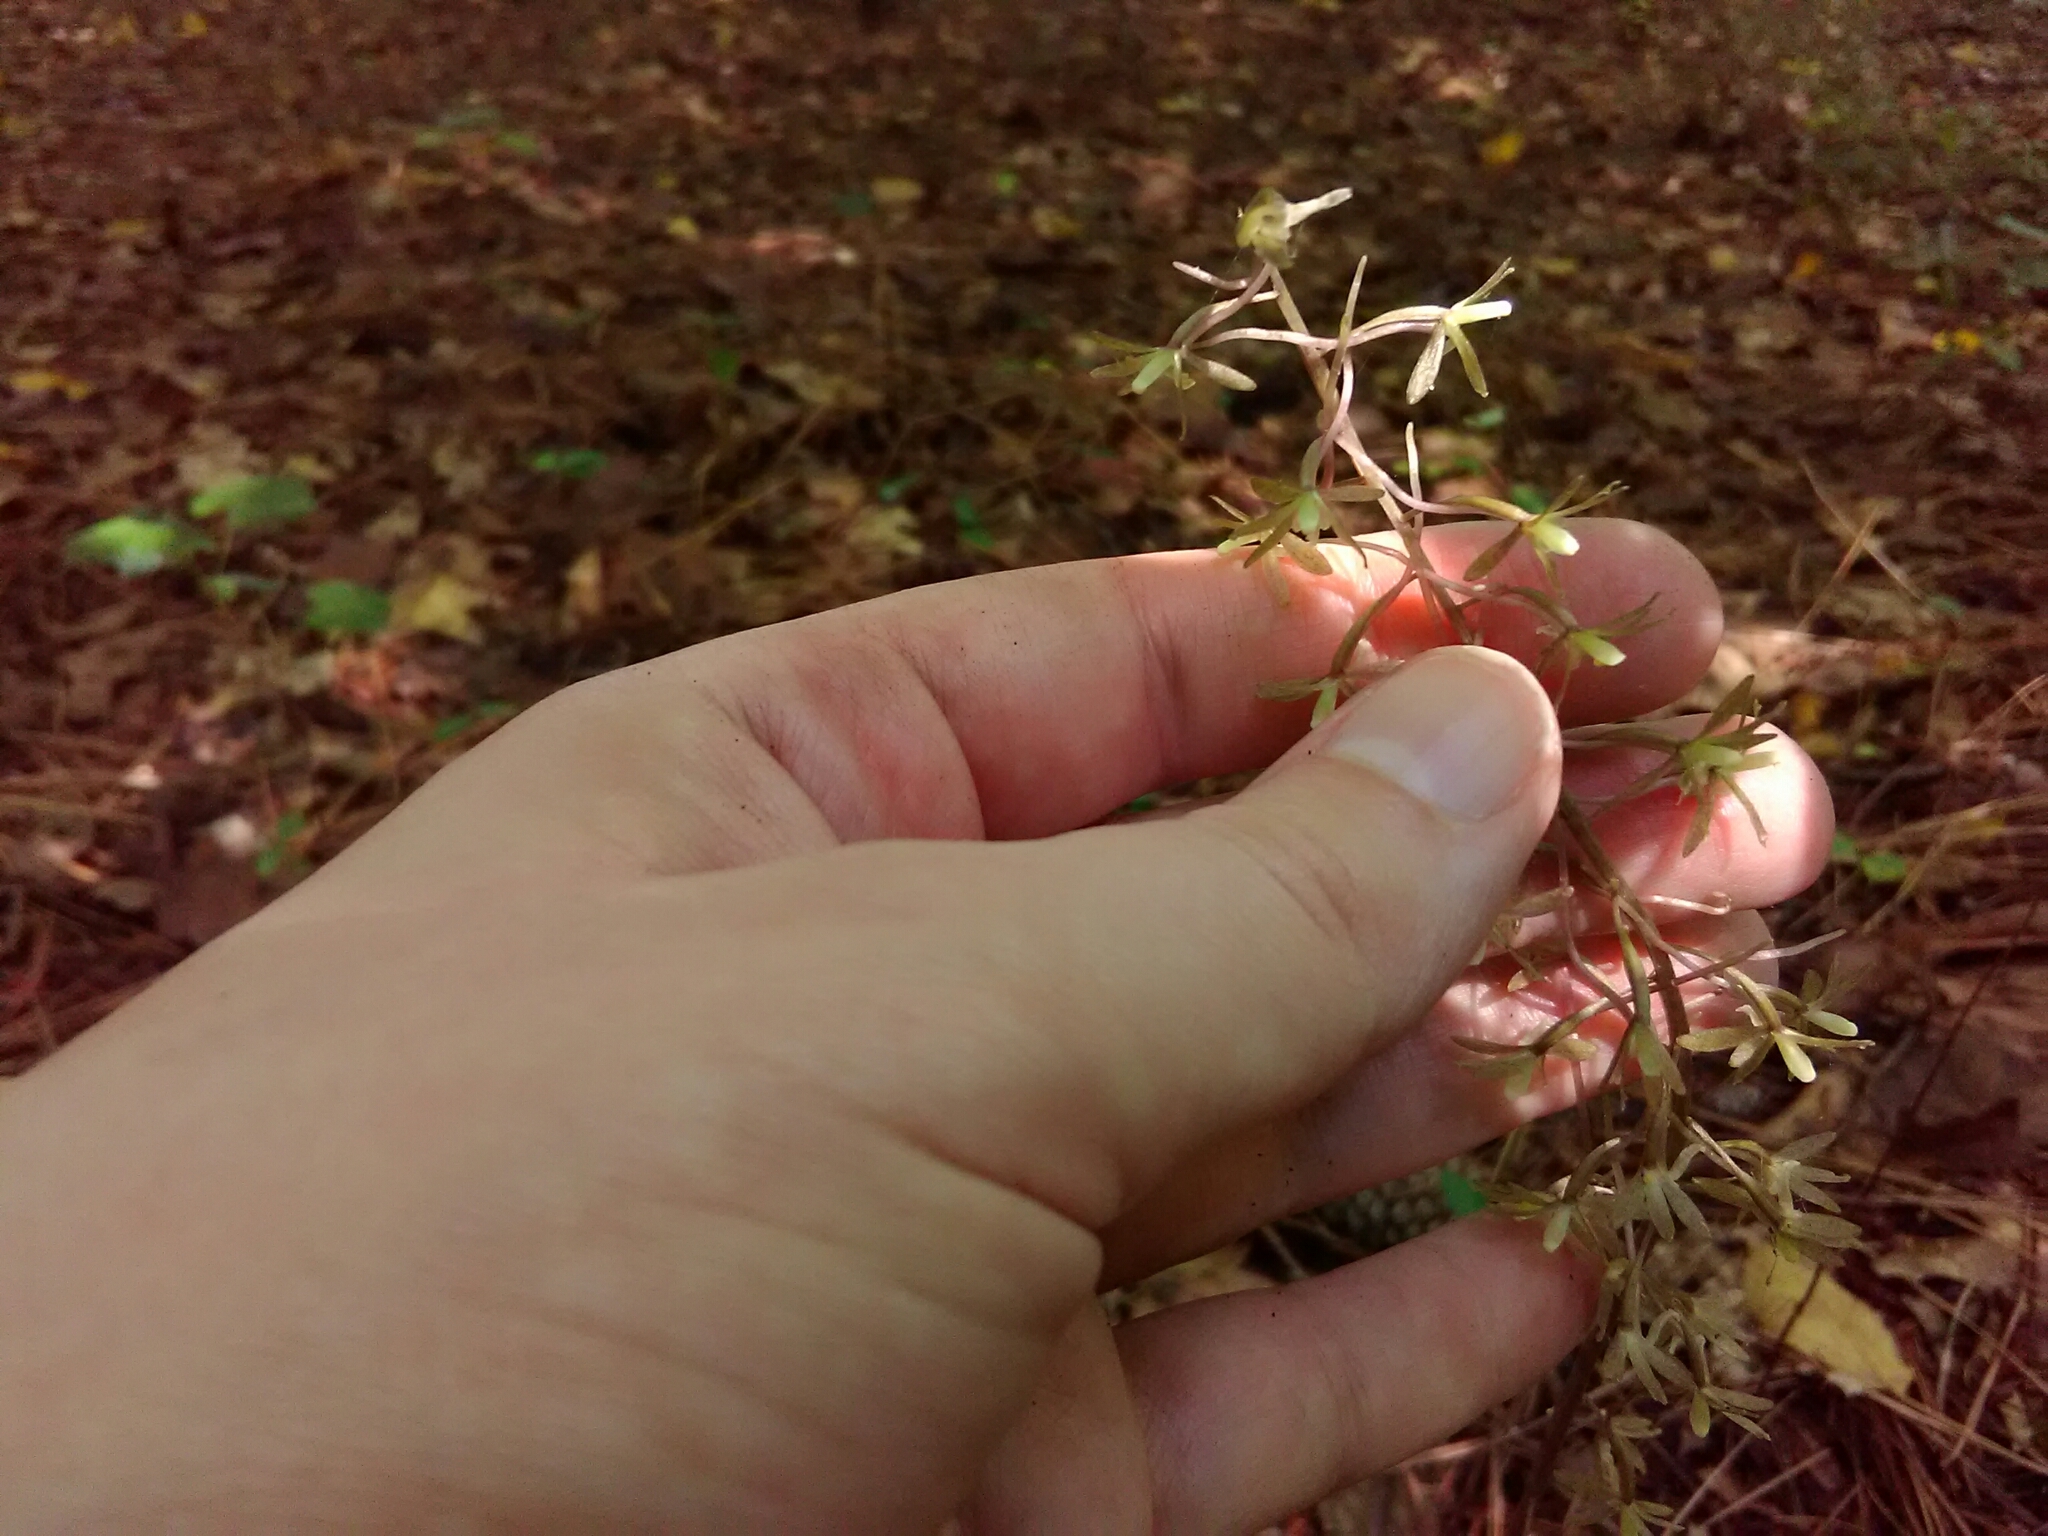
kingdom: Plantae
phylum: Tracheophyta
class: Liliopsida
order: Asparagales
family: Orchidaceae
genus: Tipularia
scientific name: Tipularia discolor
